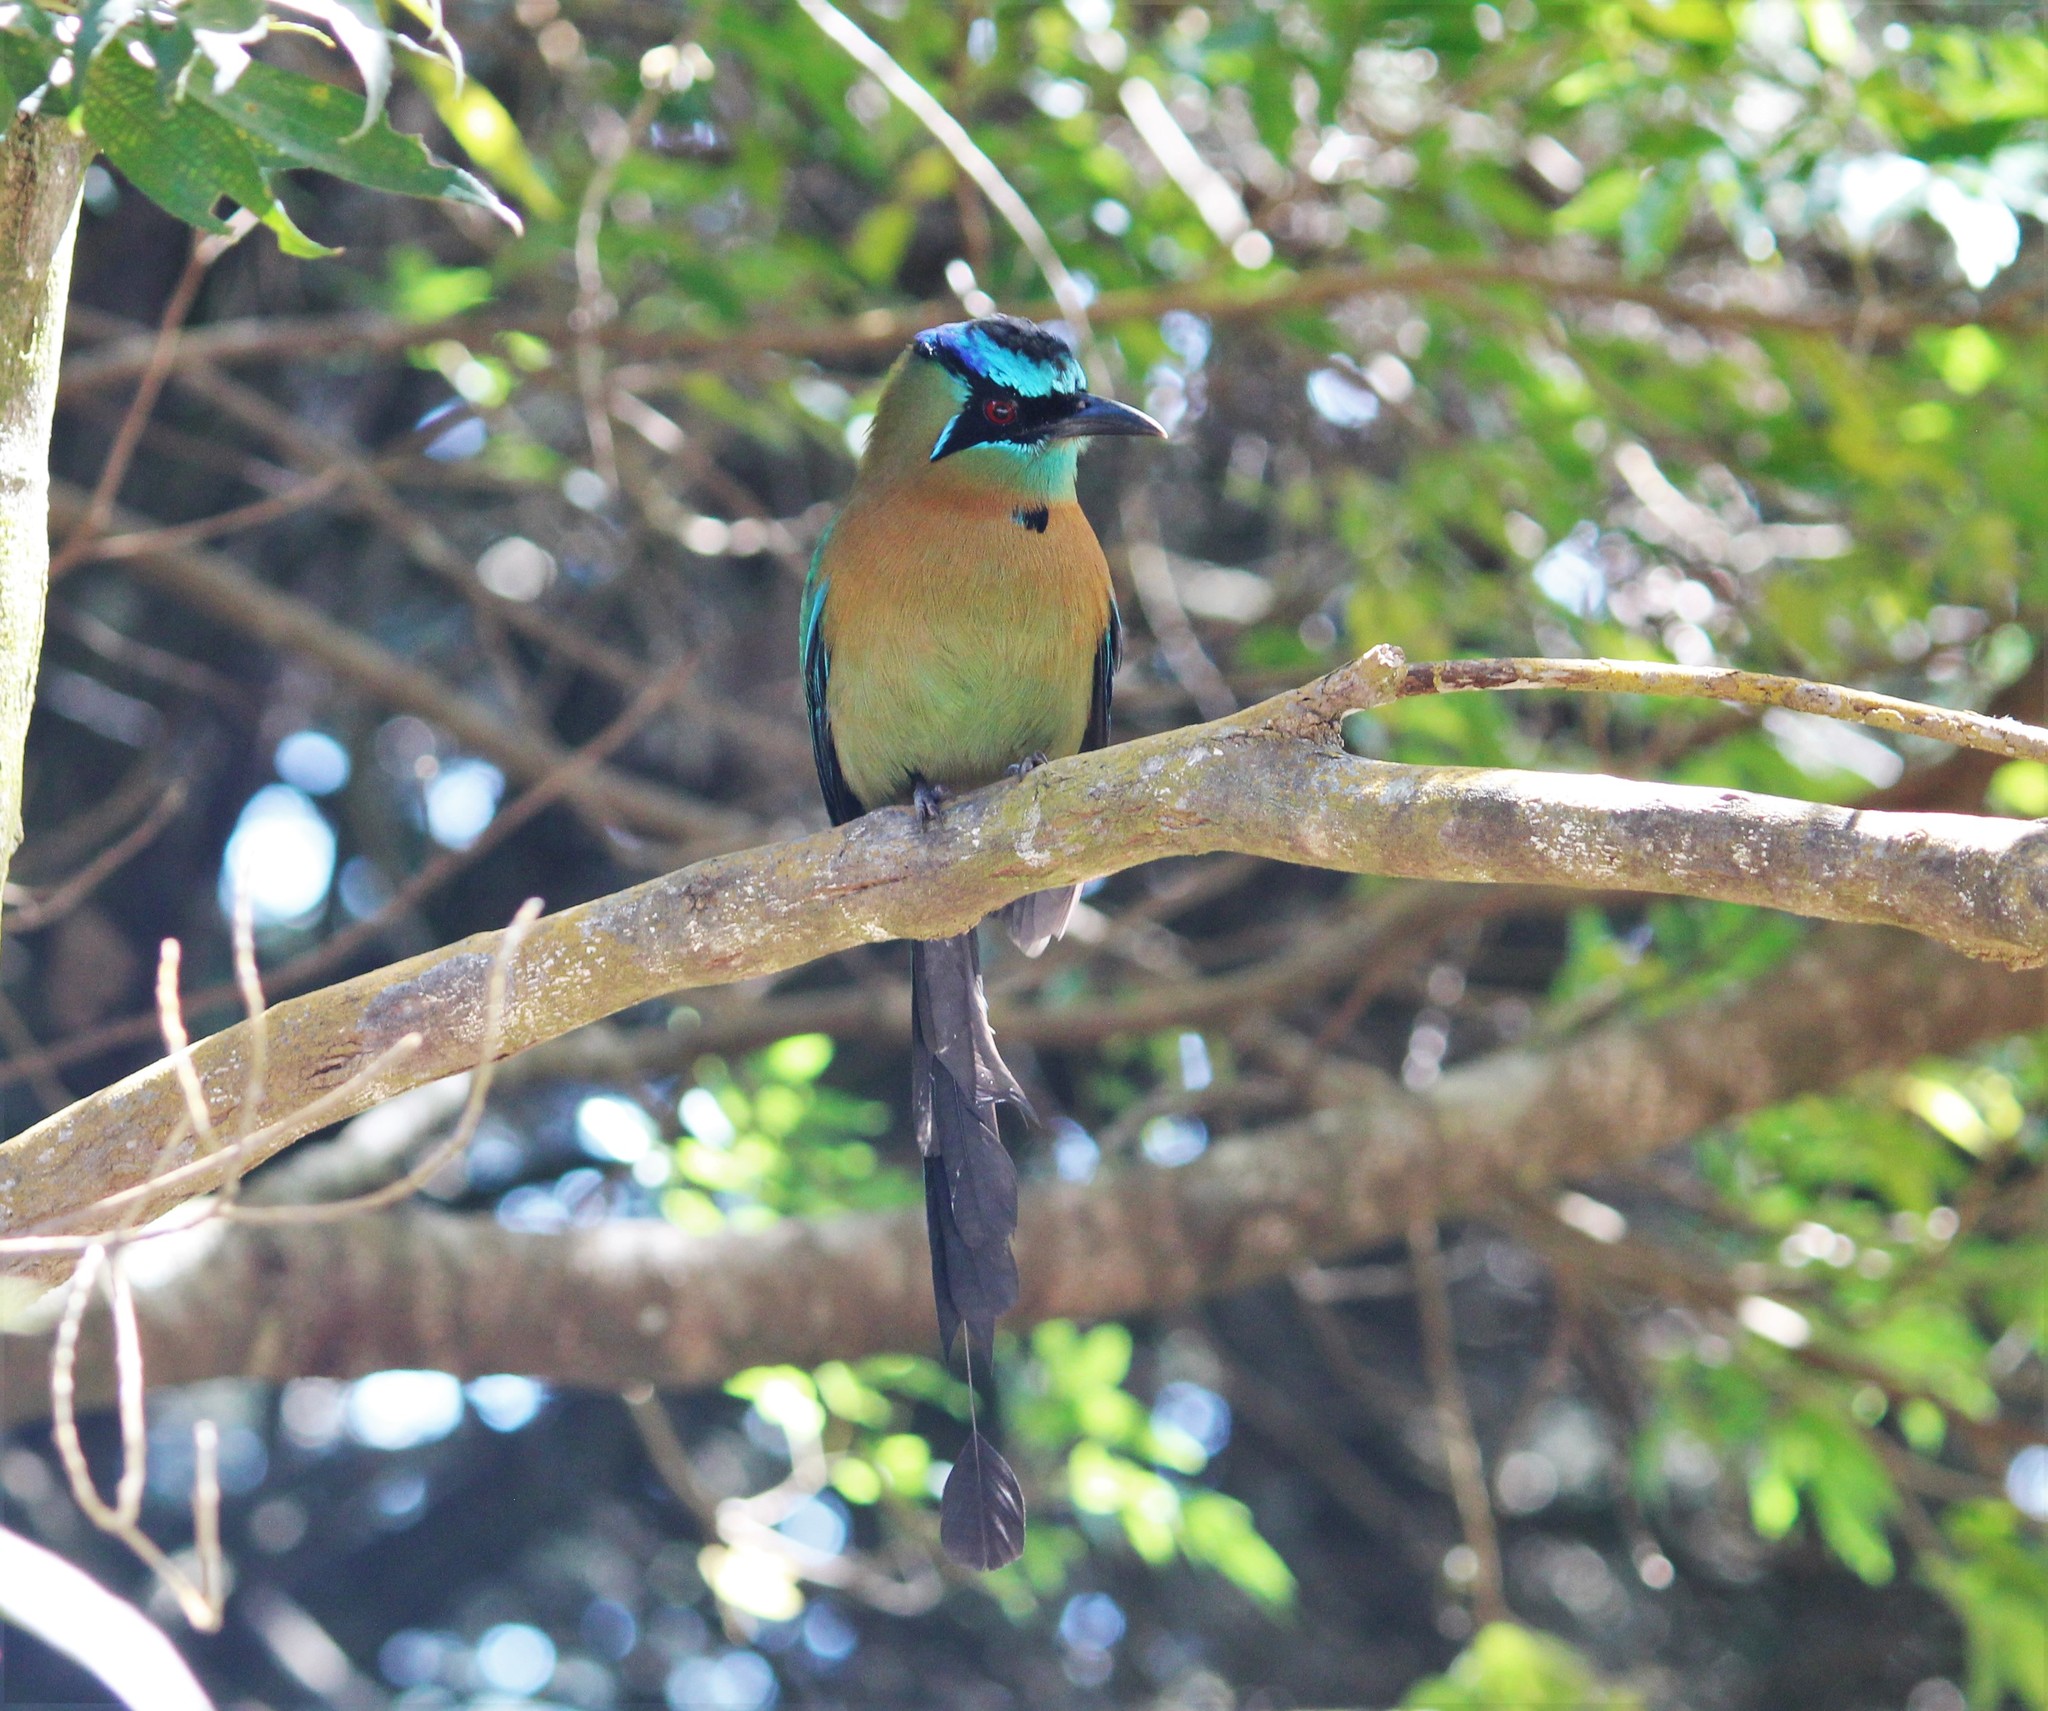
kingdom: Animalia
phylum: Chordata
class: Aves
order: Coraciiformes
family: Momotidae
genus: Momotus
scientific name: Momotus lessonii
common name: Lesson's motmot
